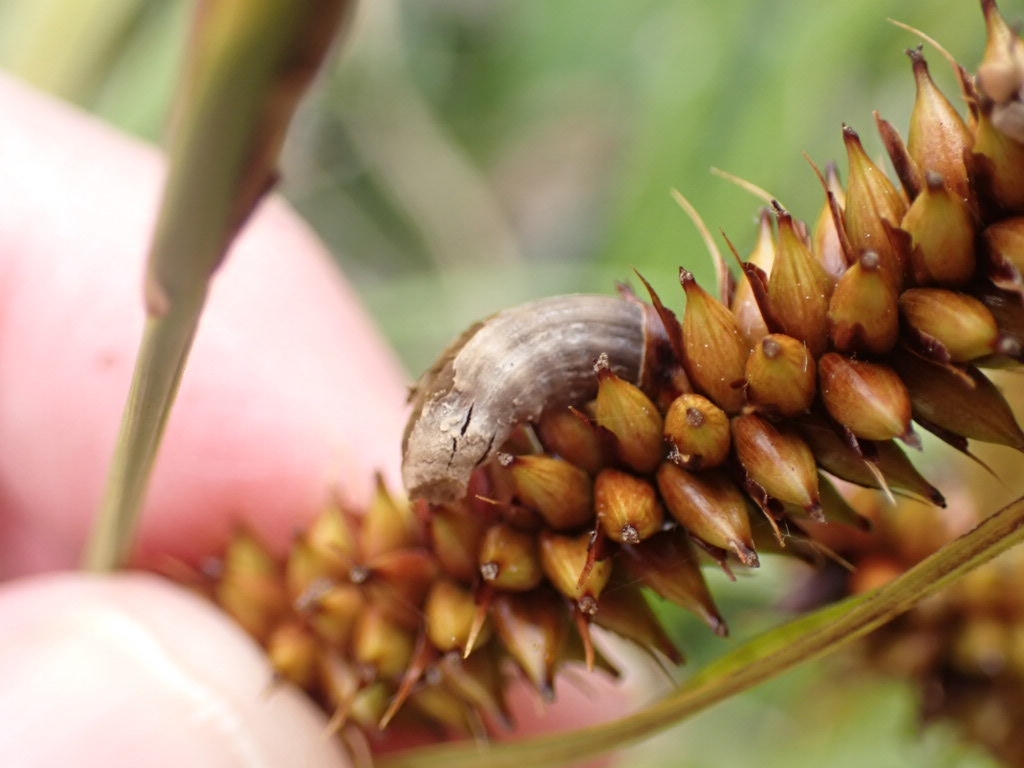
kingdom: Fungi
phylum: Basidiomycota
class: Ustilaginomycetes
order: Ustilaginales
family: Anthracoideaceae
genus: Farysia
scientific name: Farysia thuemenii
